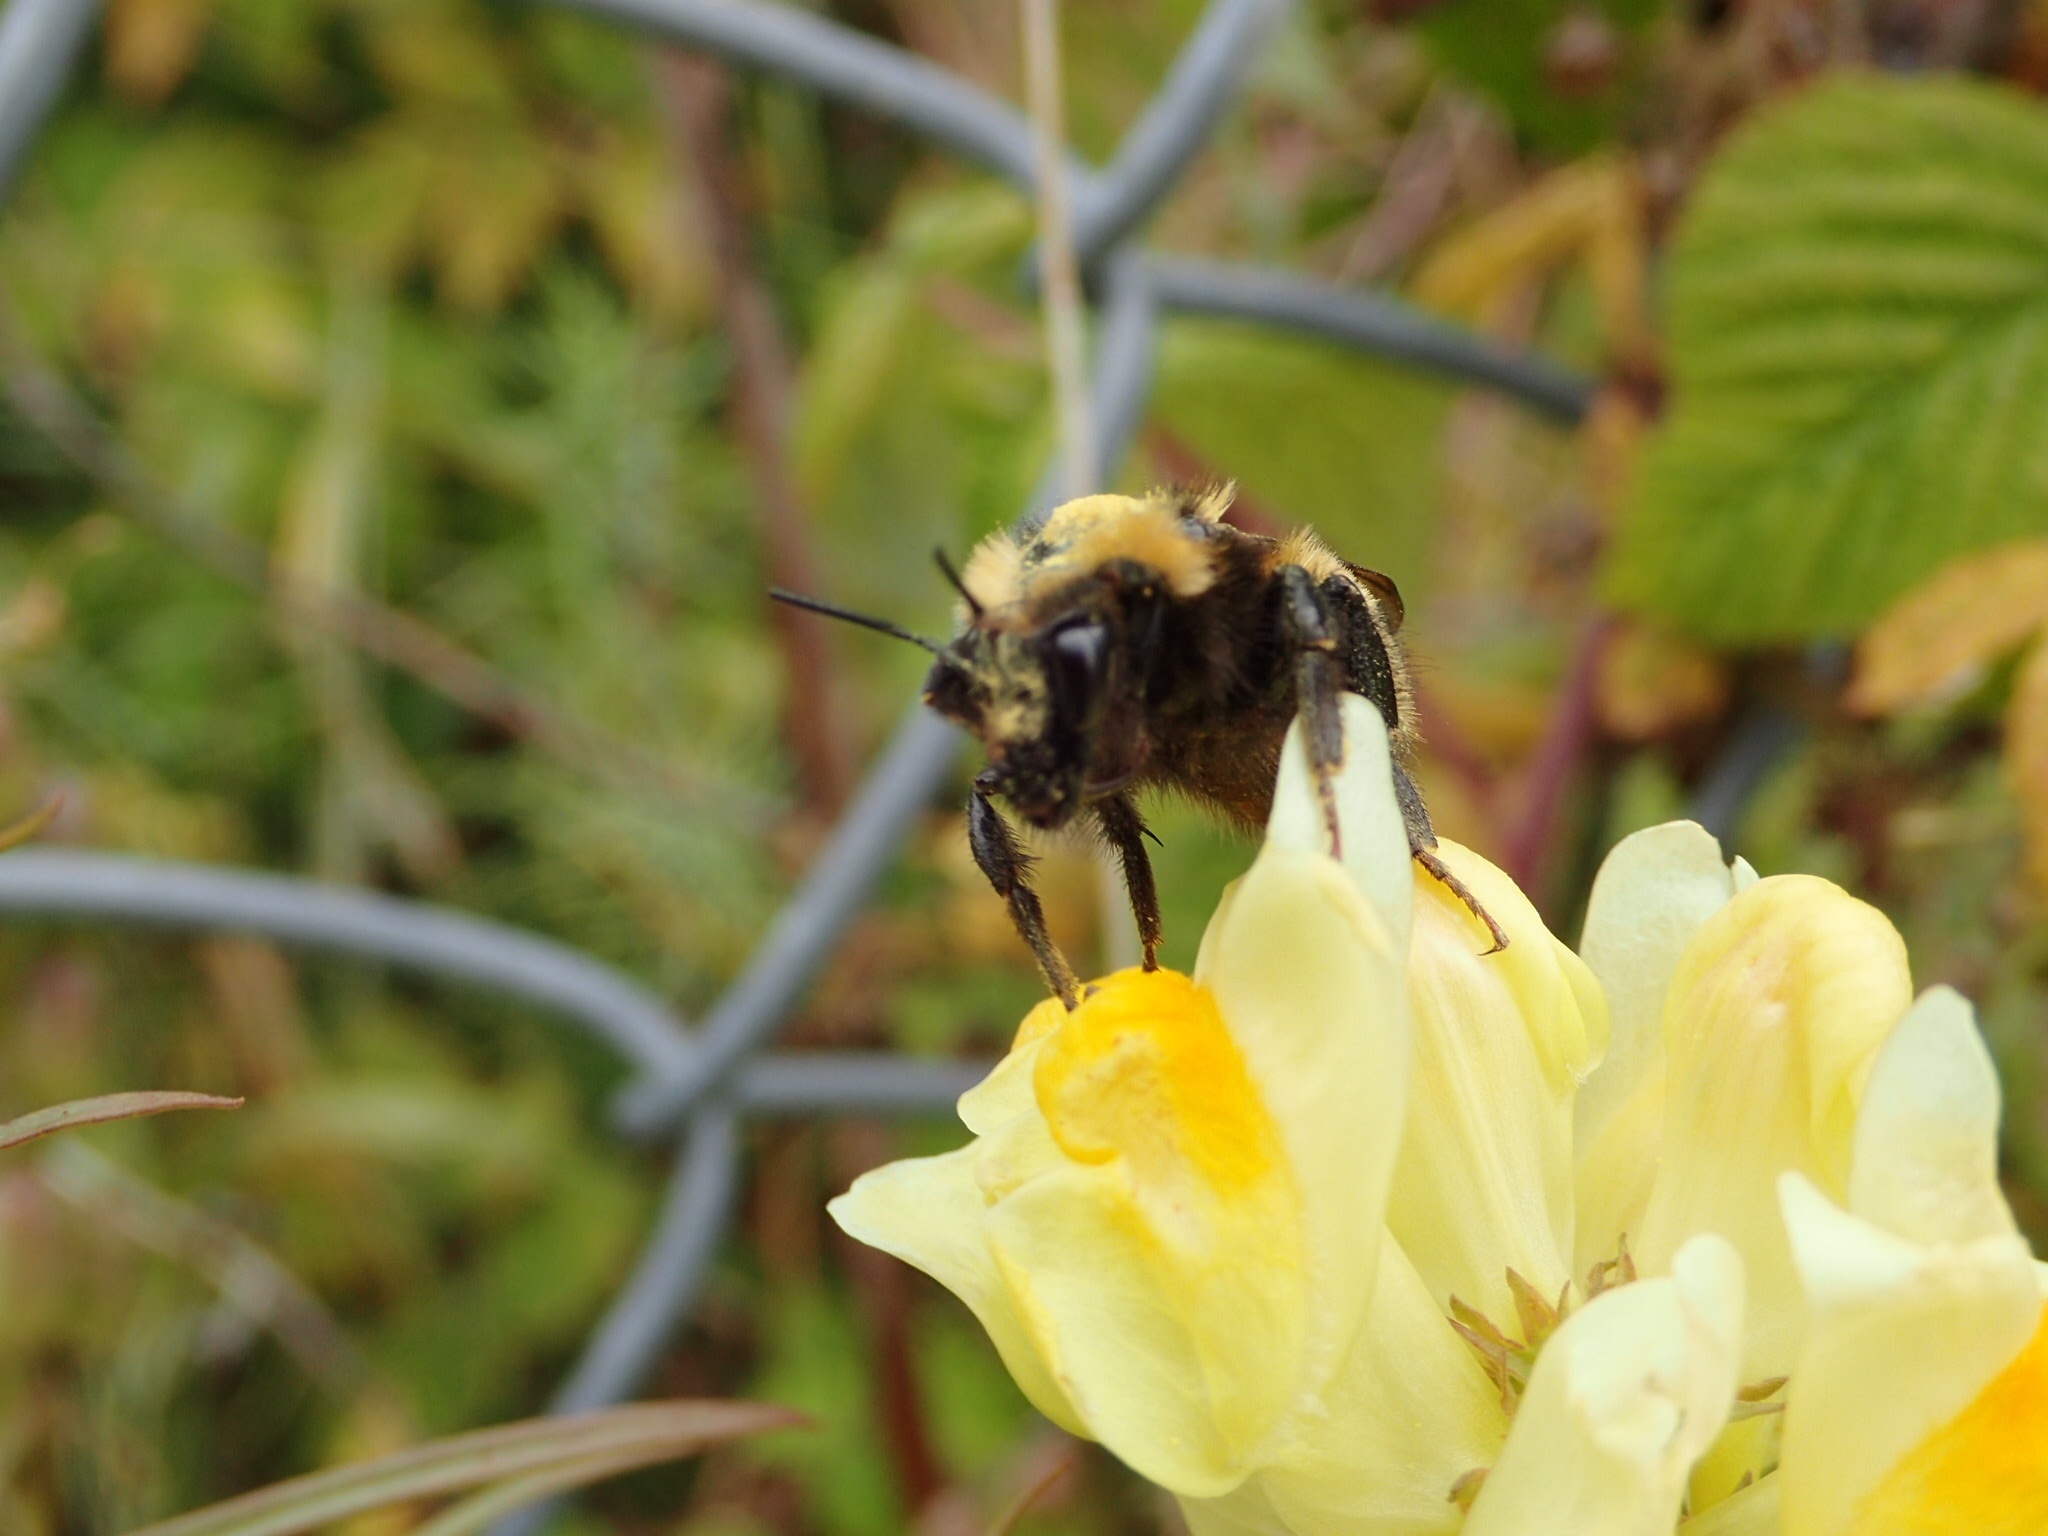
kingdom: Animalia
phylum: Arthropoda
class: Insecta
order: Hymenoptera
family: Apidae
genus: Bombus
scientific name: Bombus borealis
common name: Northern amber bumble bee
